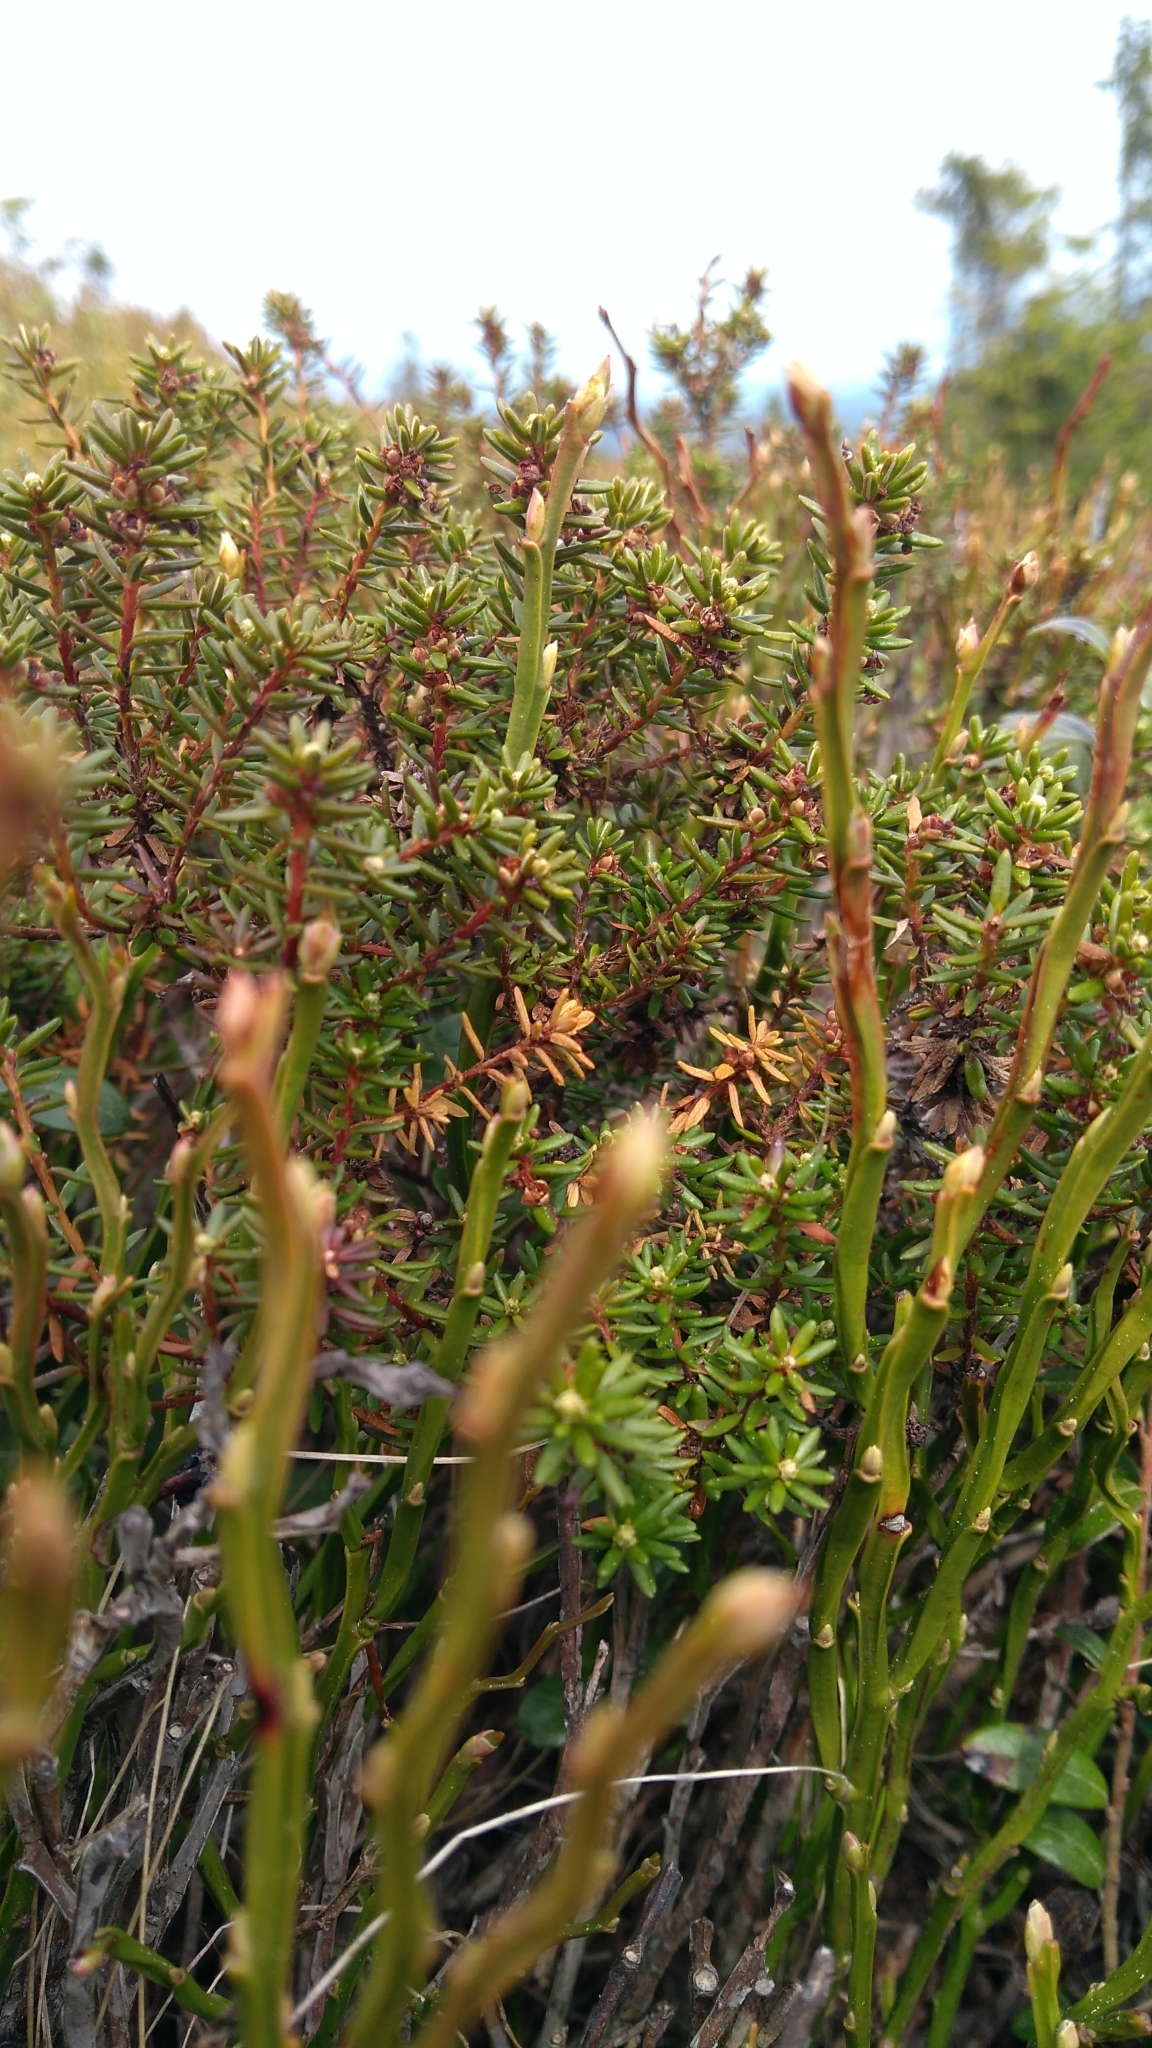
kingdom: Plantae
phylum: Tracheophyta
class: Magnoliopsida
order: Ericales
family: Ericaceae
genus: Empetrum
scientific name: Empetrum nigrum
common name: Black crowberry
